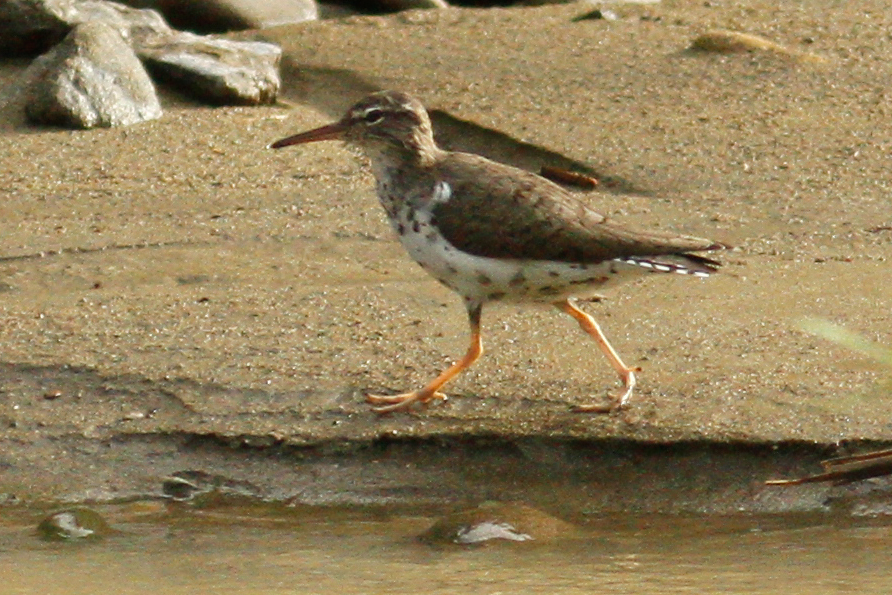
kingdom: Animalia
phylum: Chordata
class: Aves
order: Charadriiformes
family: Scolopacidae
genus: Actitis
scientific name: Actitis macularius
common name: Spotted sandpiper
